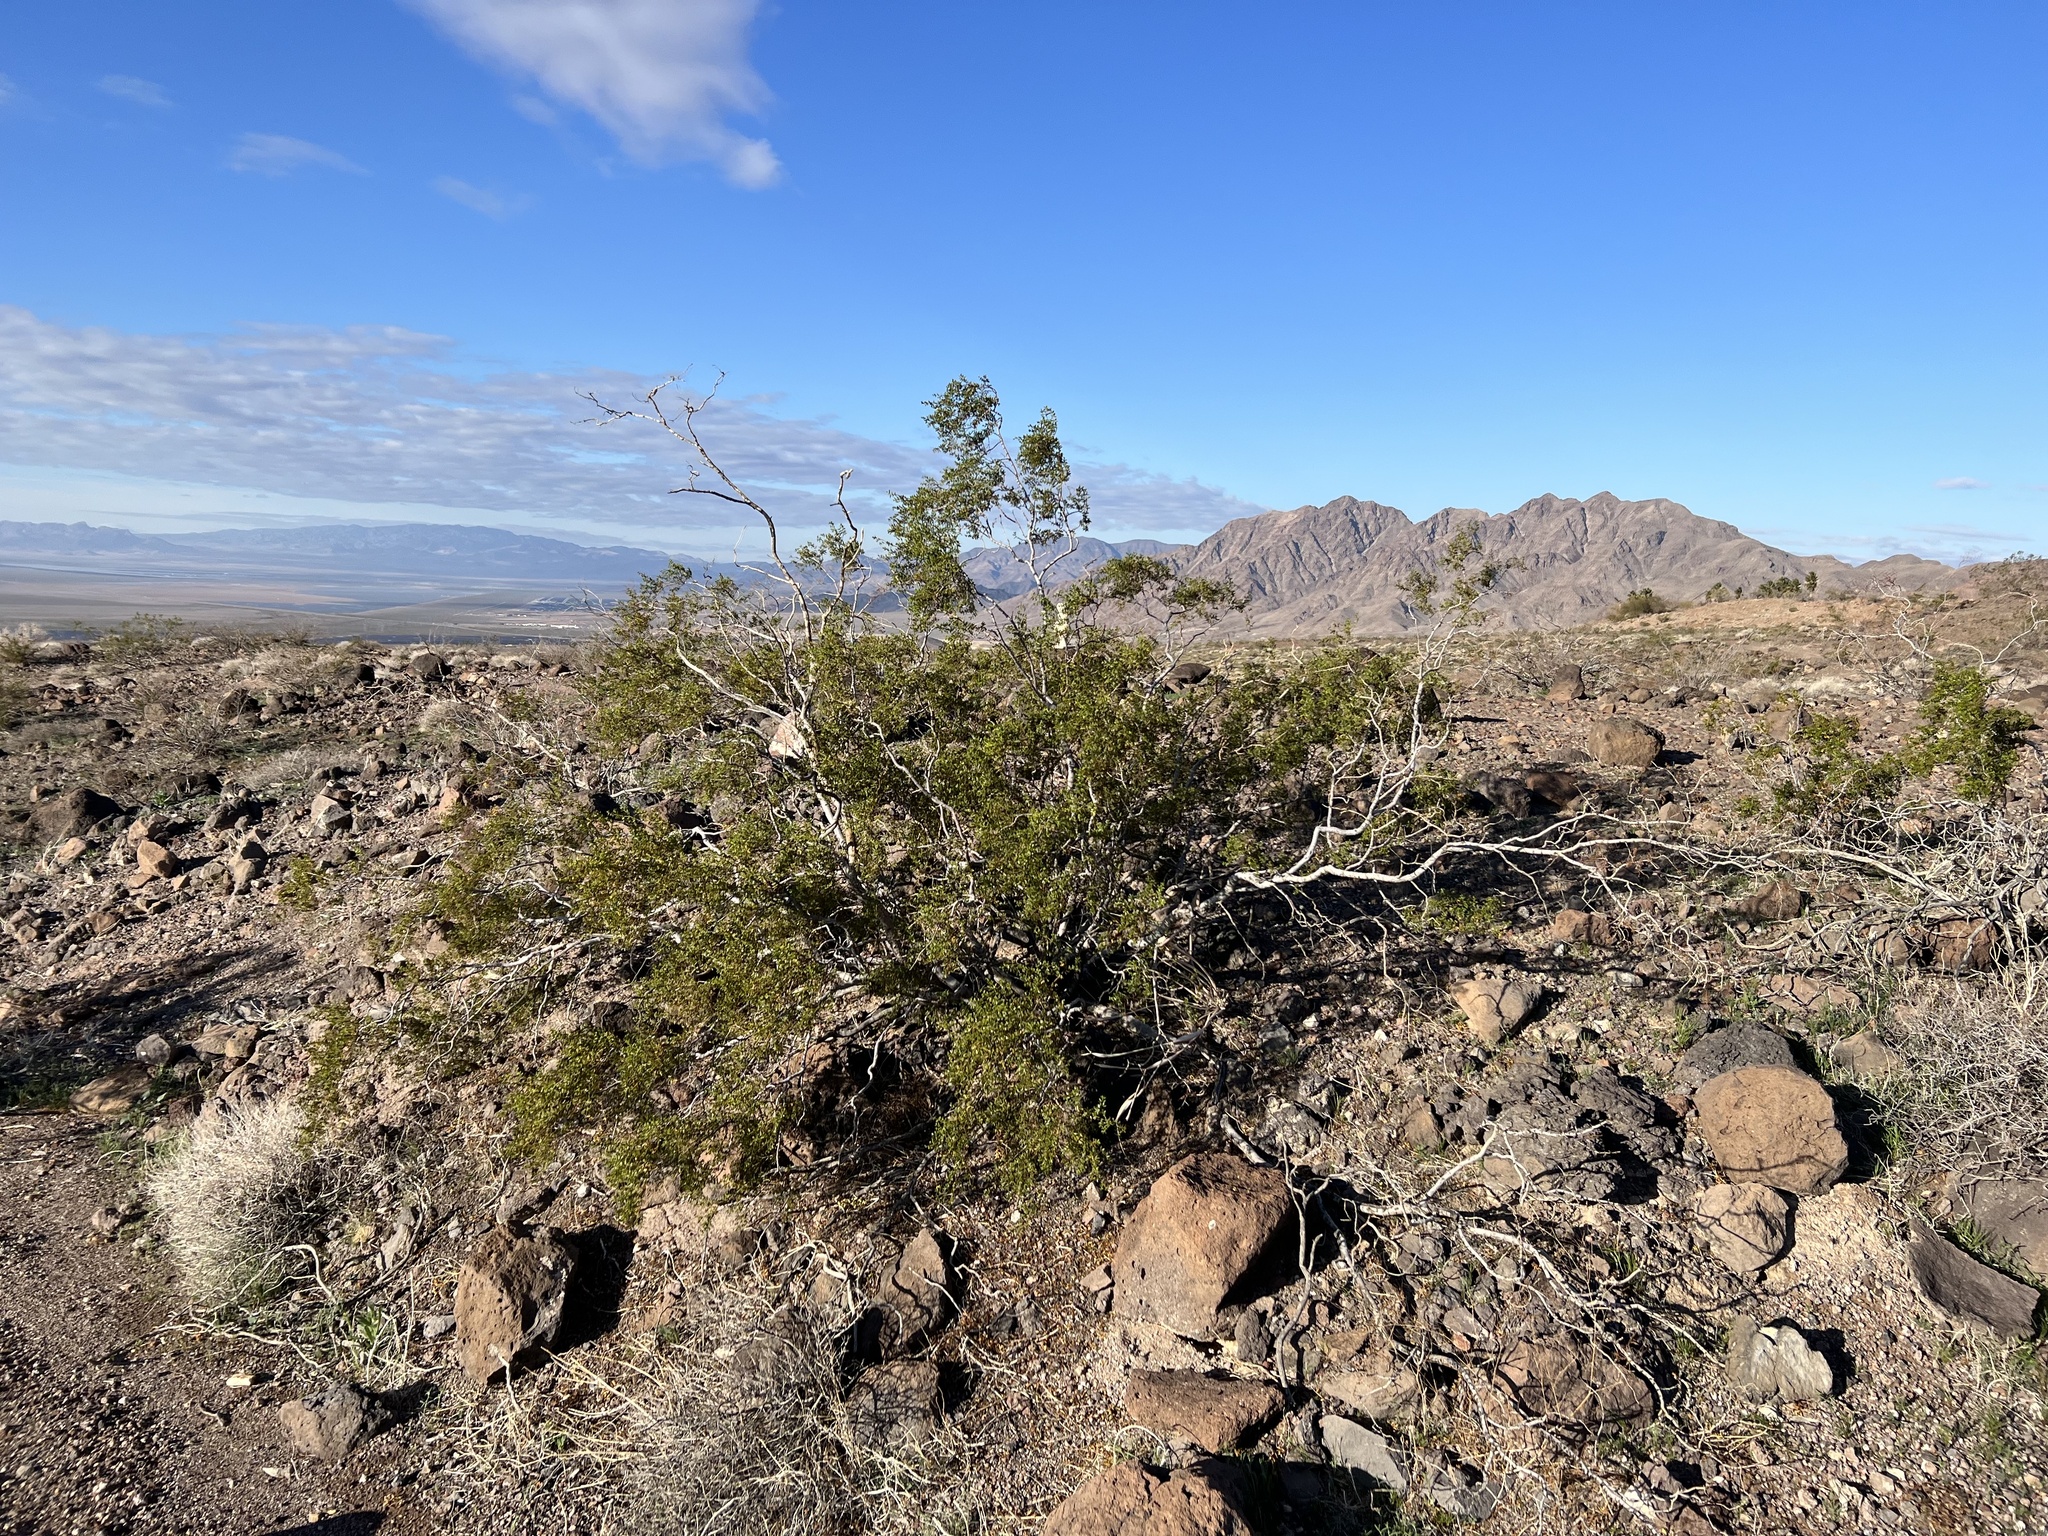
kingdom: Plantae
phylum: Tracheophyta
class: Magnoliopsida
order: Zygophyllales
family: Zygophyllaceae
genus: Larrea
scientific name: Larrea tridentata
